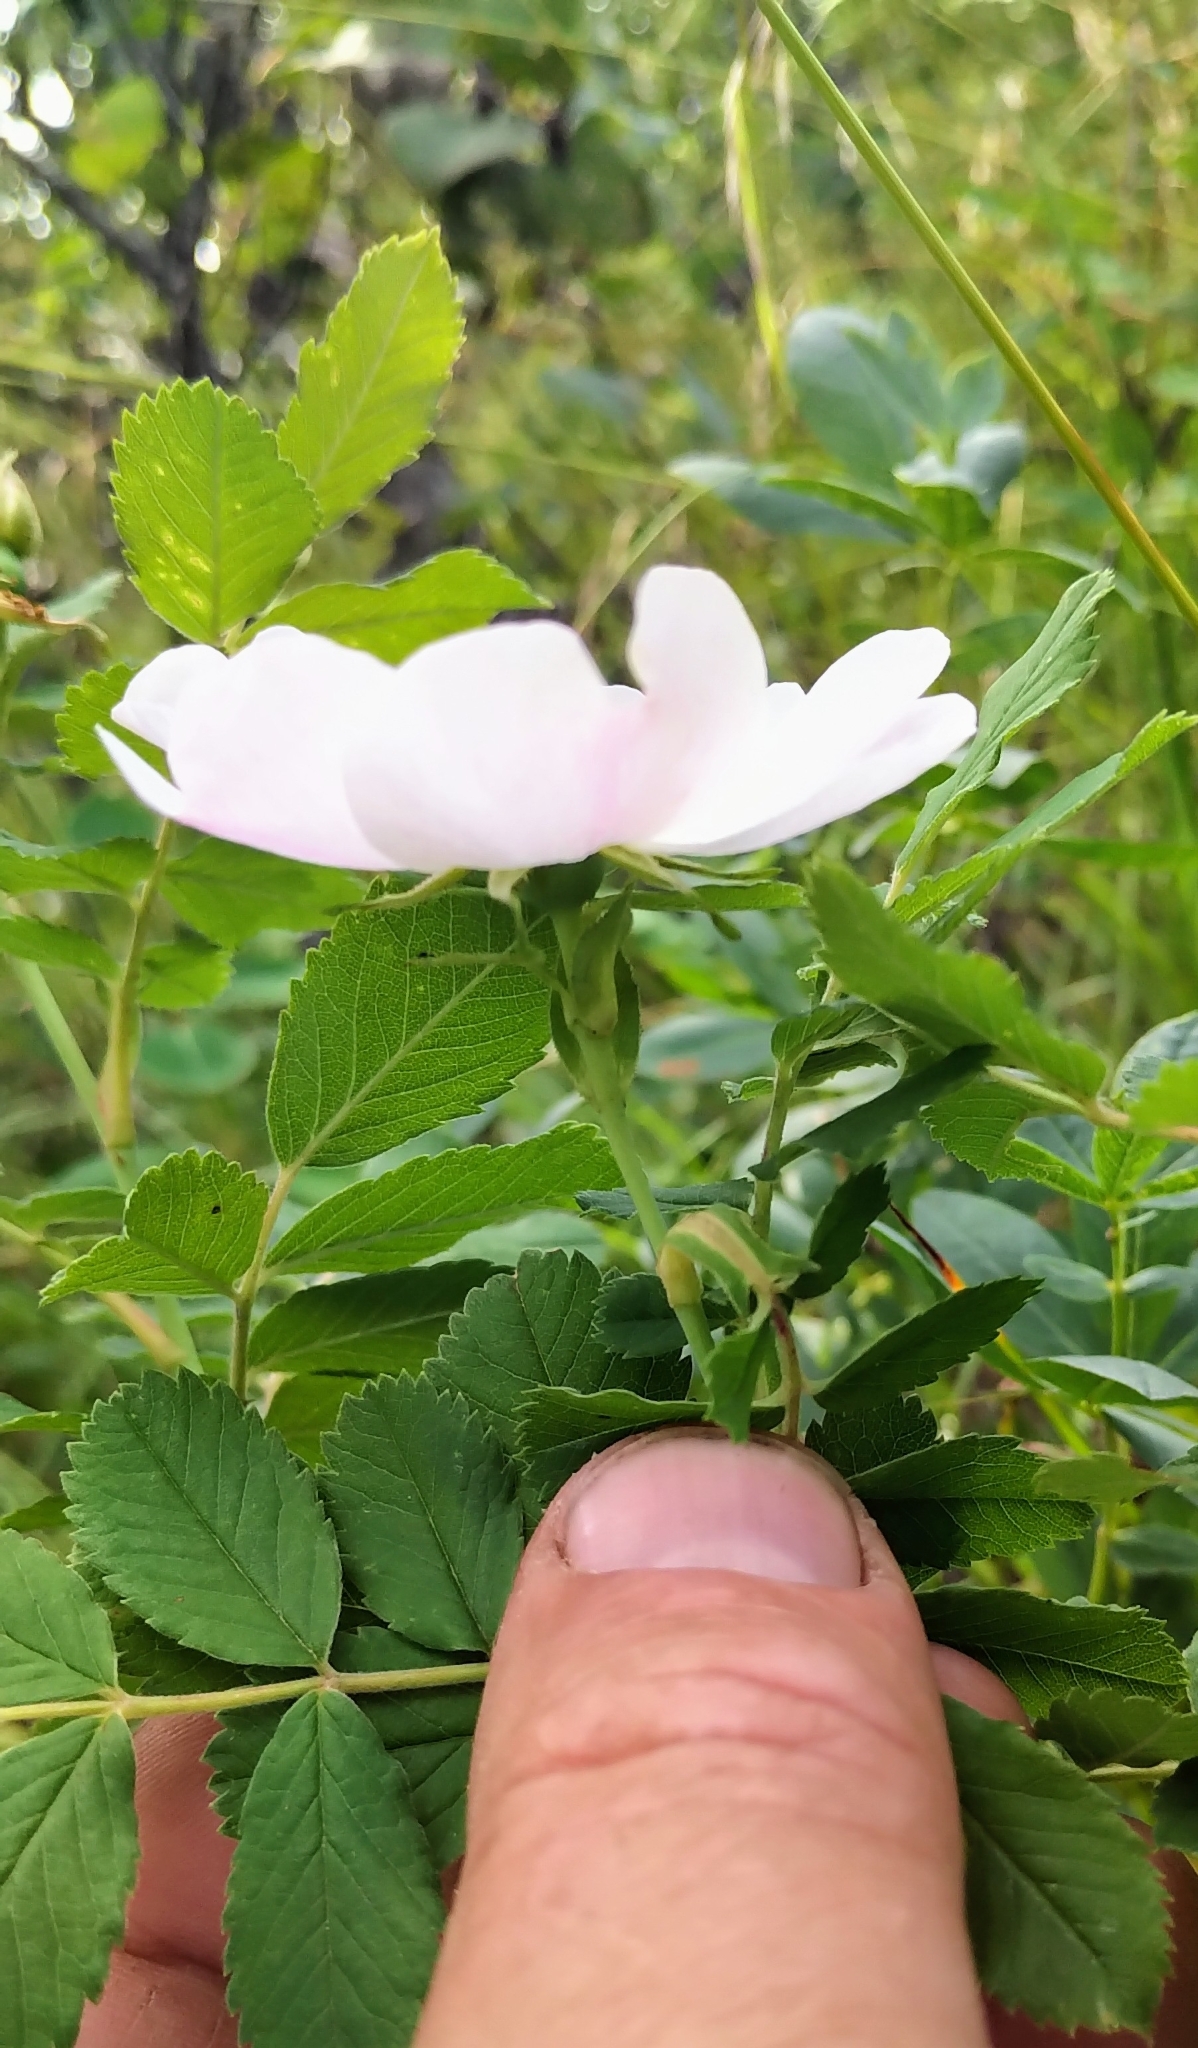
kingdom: Plantae
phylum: Tracheophyta
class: Magnoliopsida
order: Rosales
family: Rosaceae
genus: Rosa
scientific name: Rosa arkansana
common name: Prairie rose
